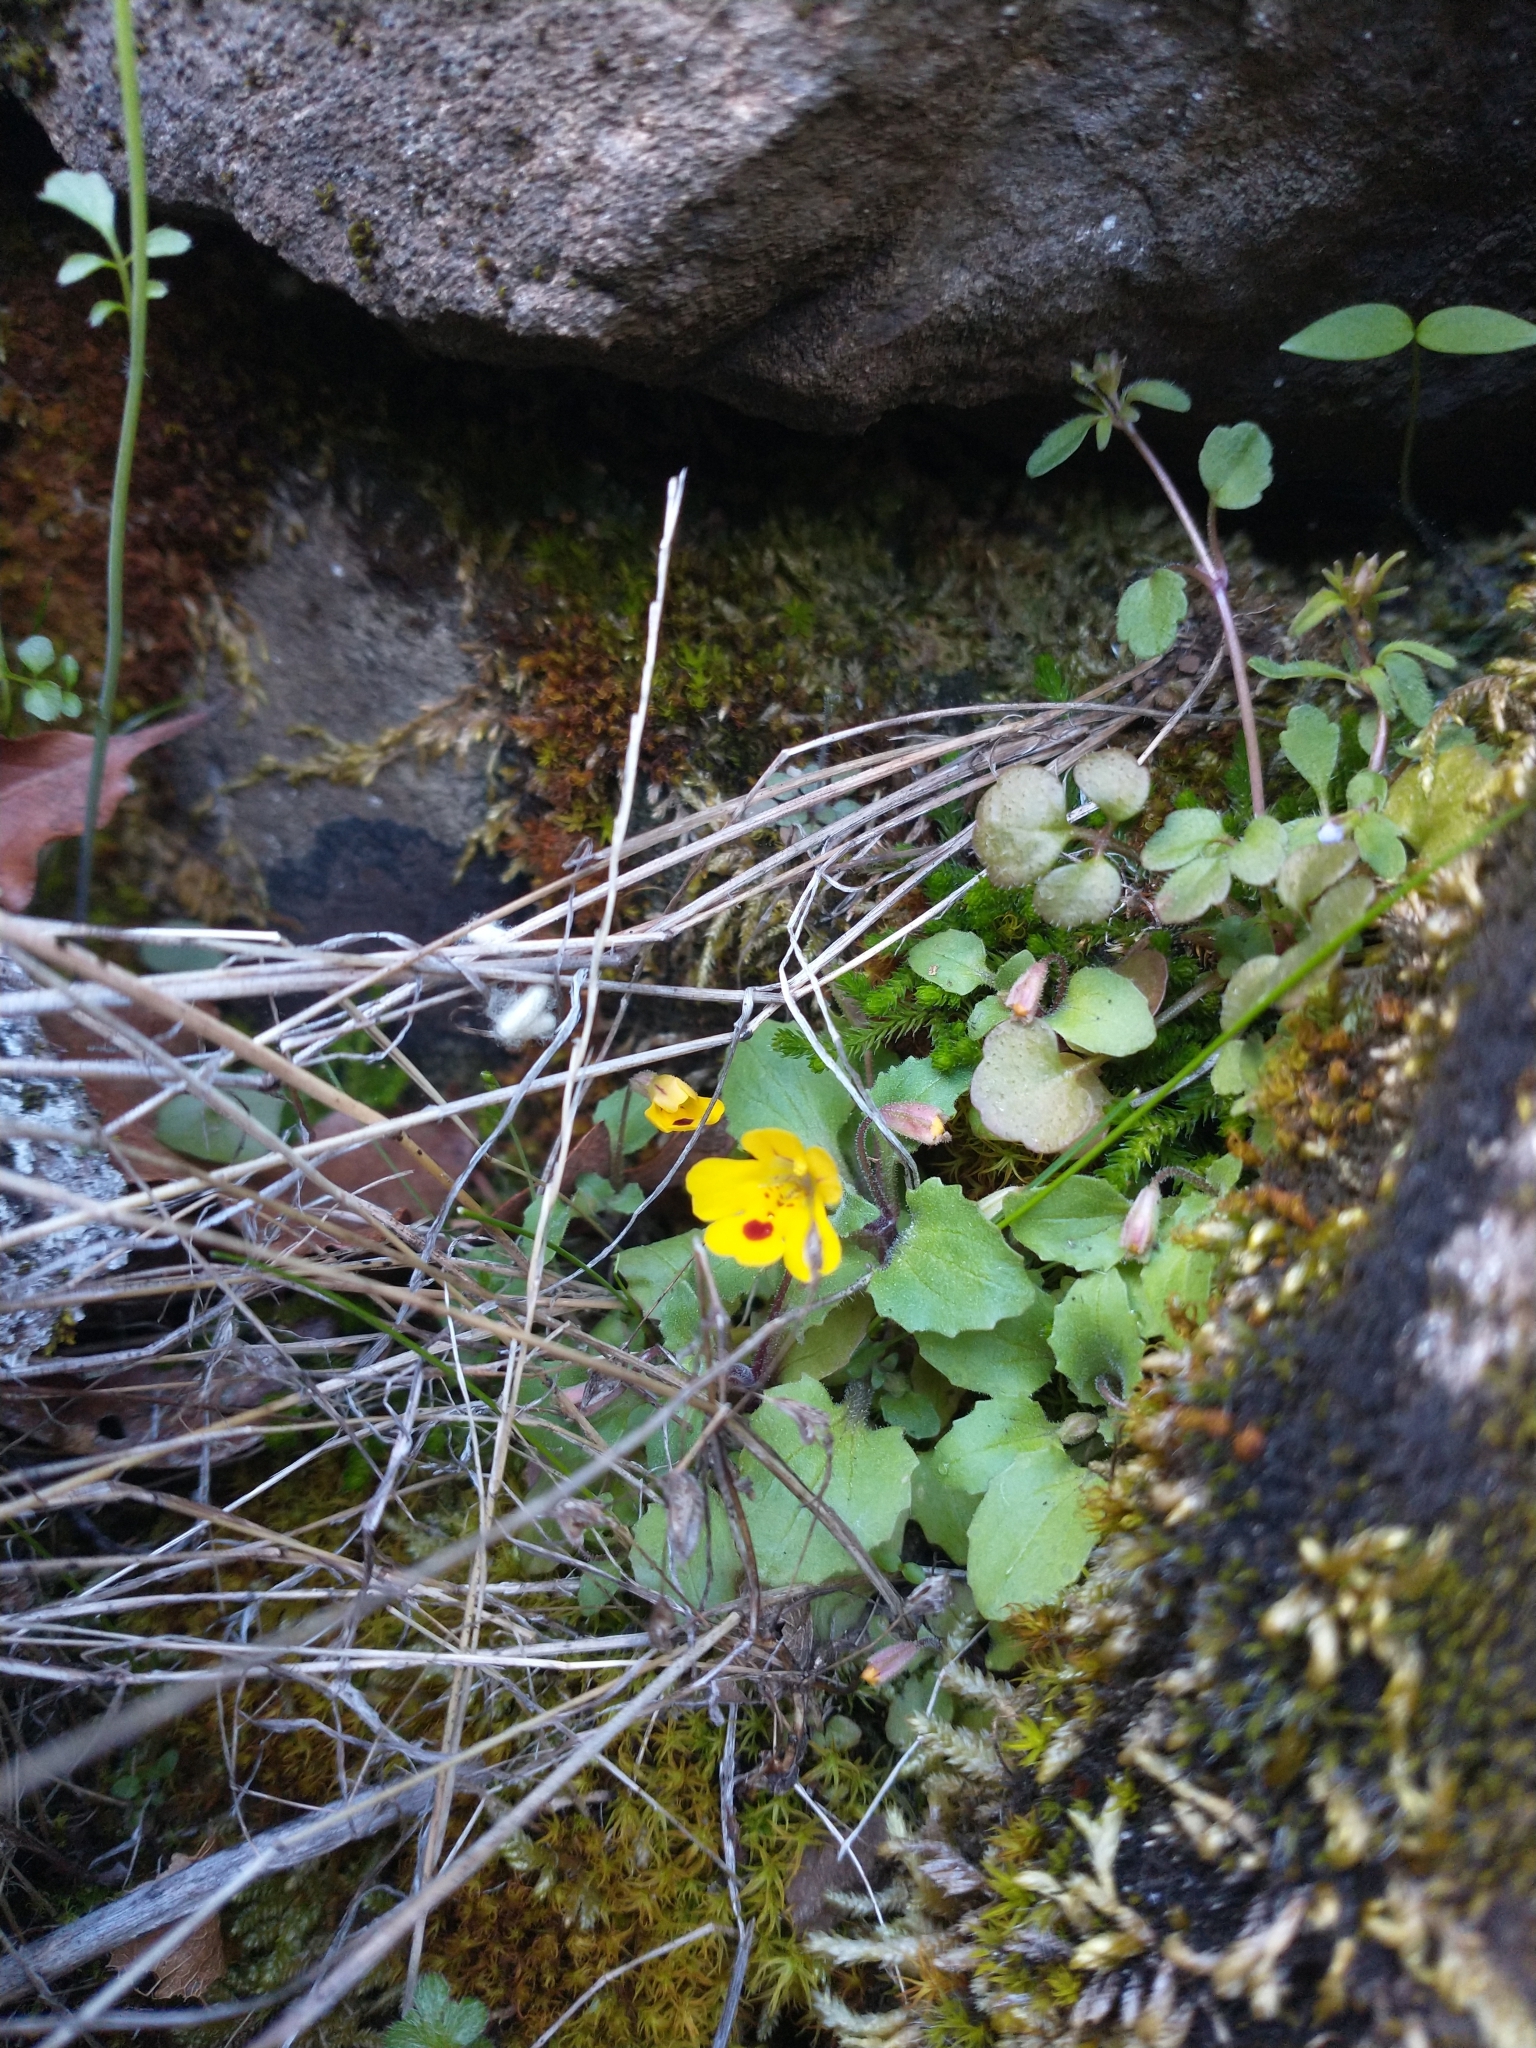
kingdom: Plantae
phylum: Tracheophyta
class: Magnoliopsida
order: Lamiales
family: Phrymaceae
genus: Erythranthe
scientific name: Erythranthe alsinoides
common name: Chickweed monkeyflower
